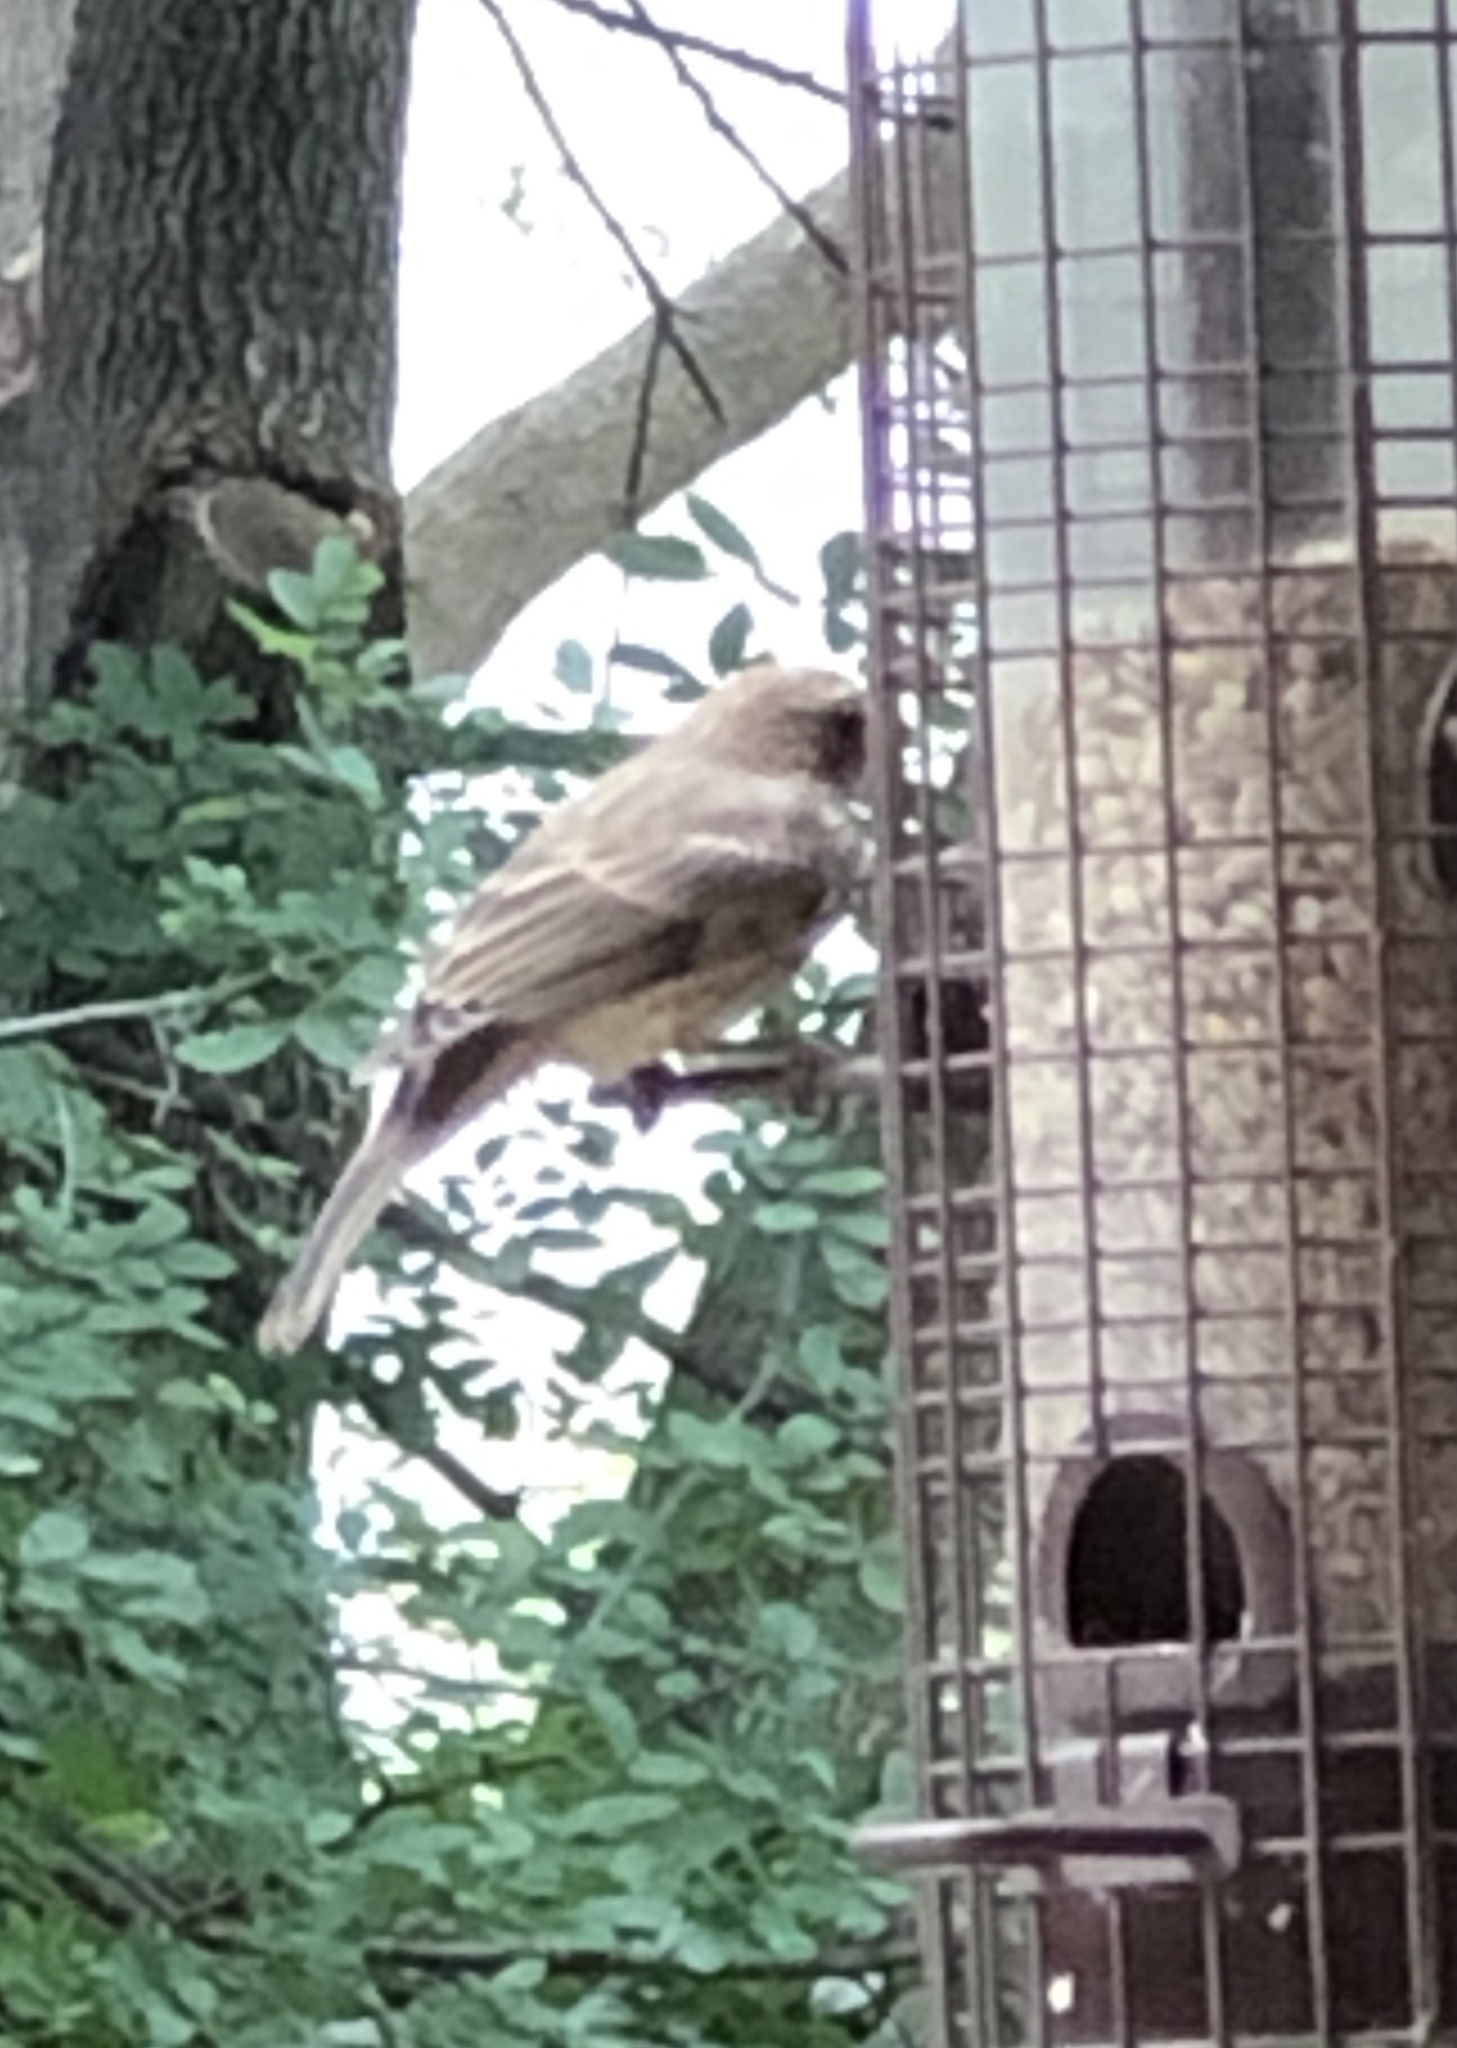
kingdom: Animalia
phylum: Chordata
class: Aves
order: Passeriformes
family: Fringillidae
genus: Haemorhous
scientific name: Haemorhous mexicanus
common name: House finch
